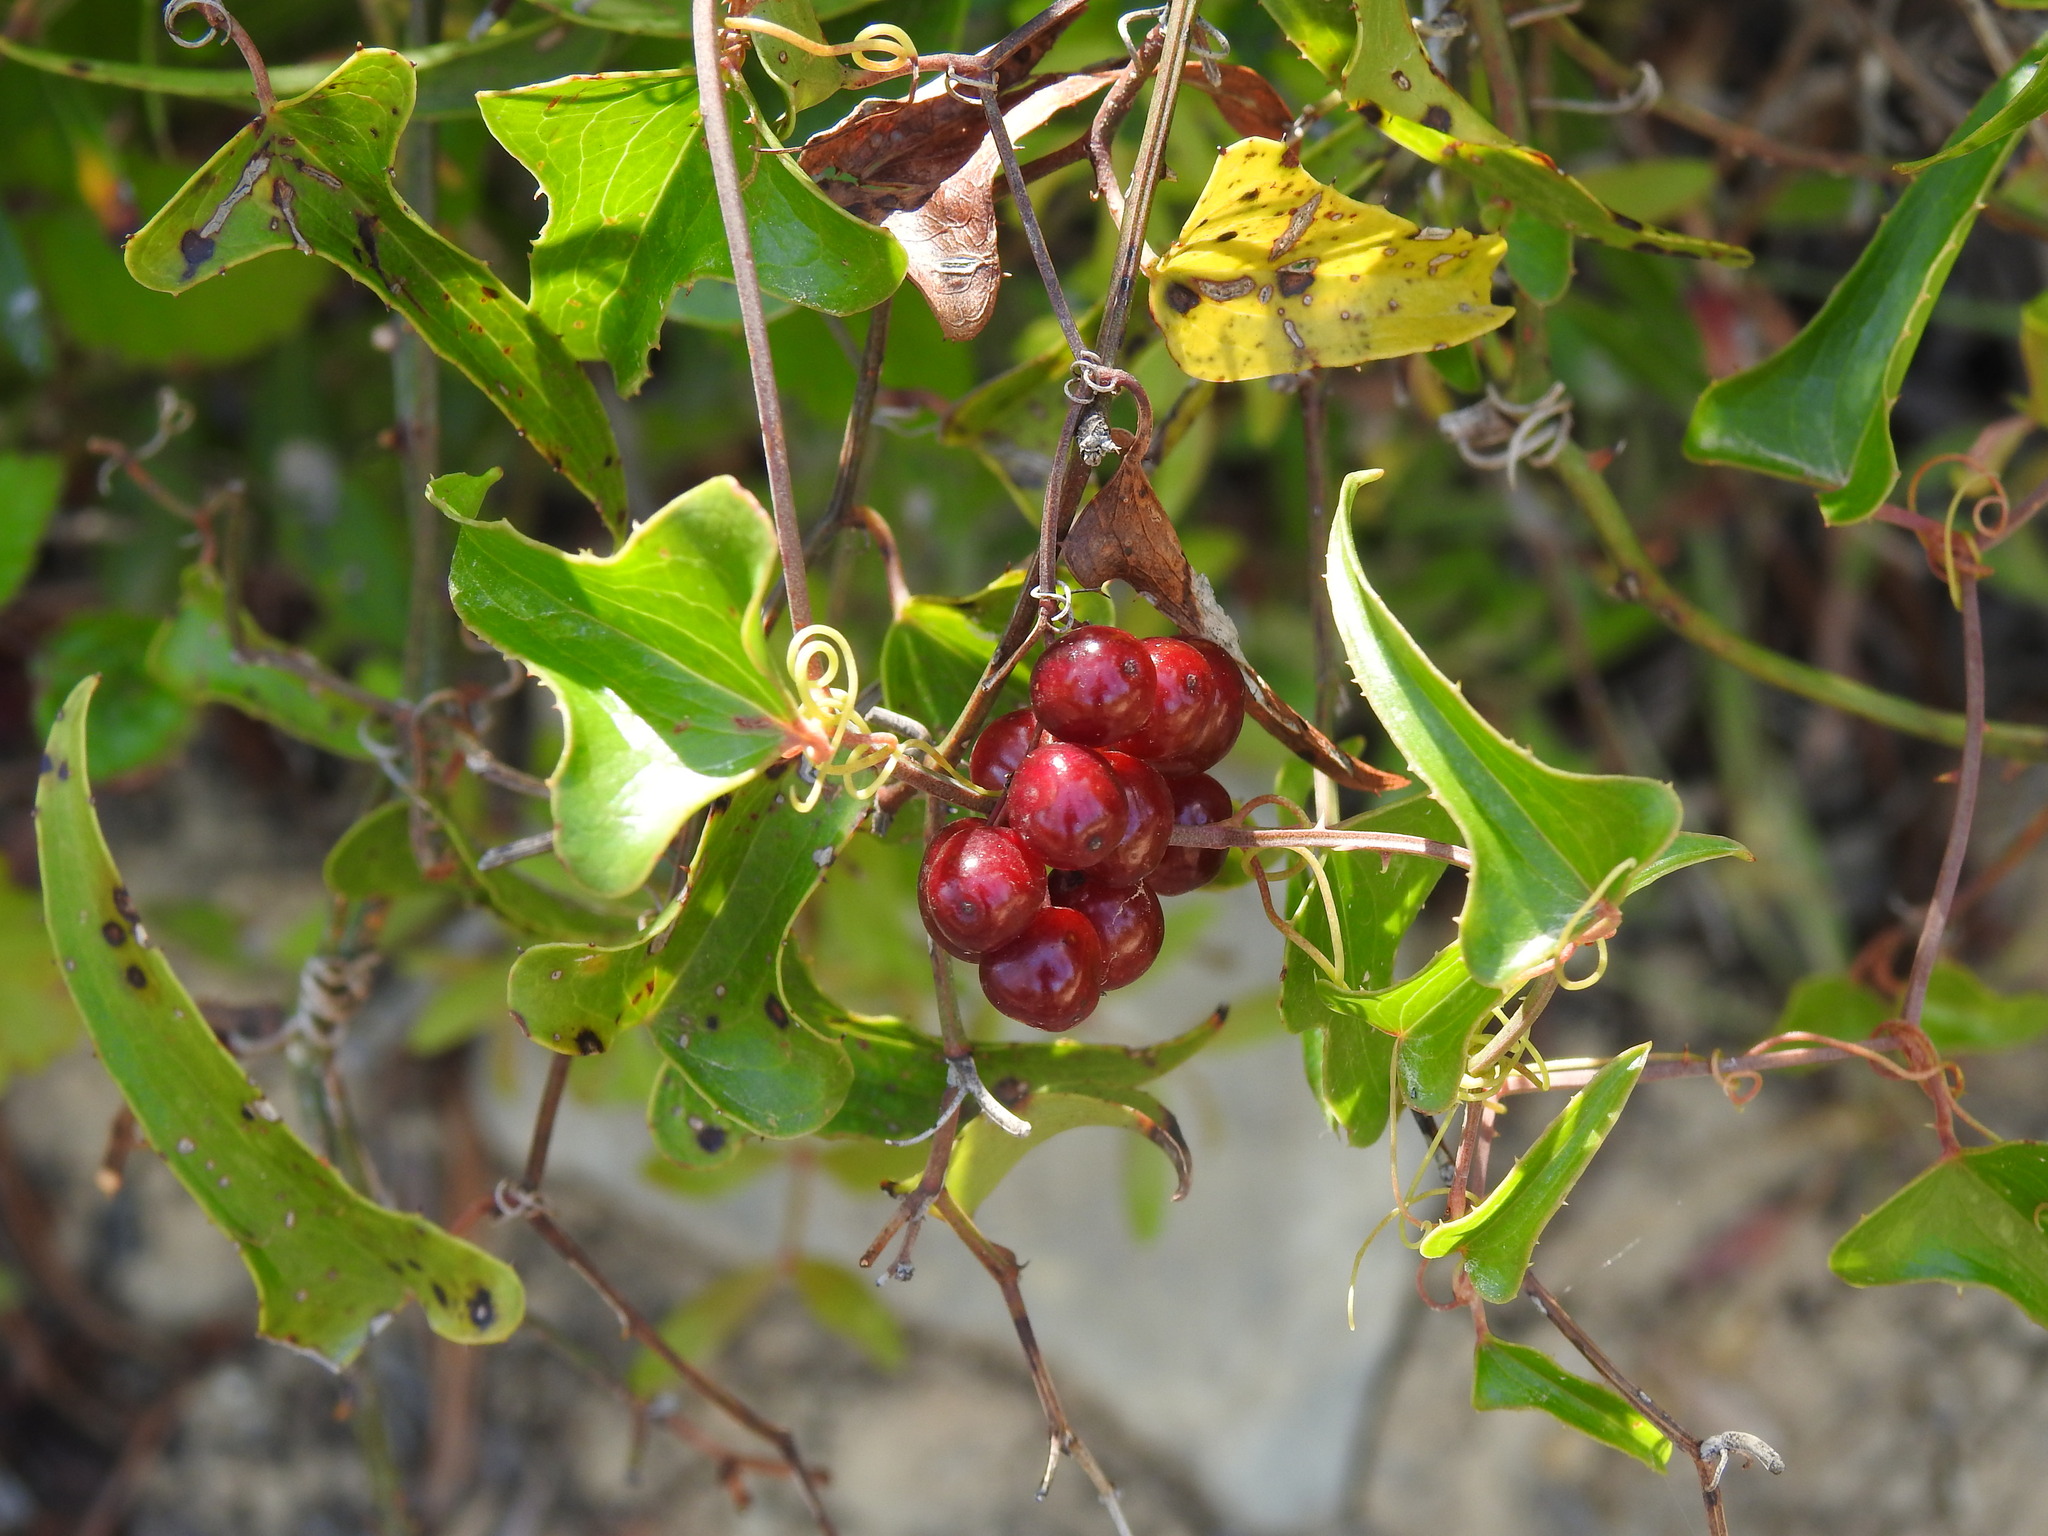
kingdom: Plantae
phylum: Tracheophyta
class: Liliopsida
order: Liliales
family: Smilacaceae
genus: Smilax
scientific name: Smilax aspera
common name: Common smilax
